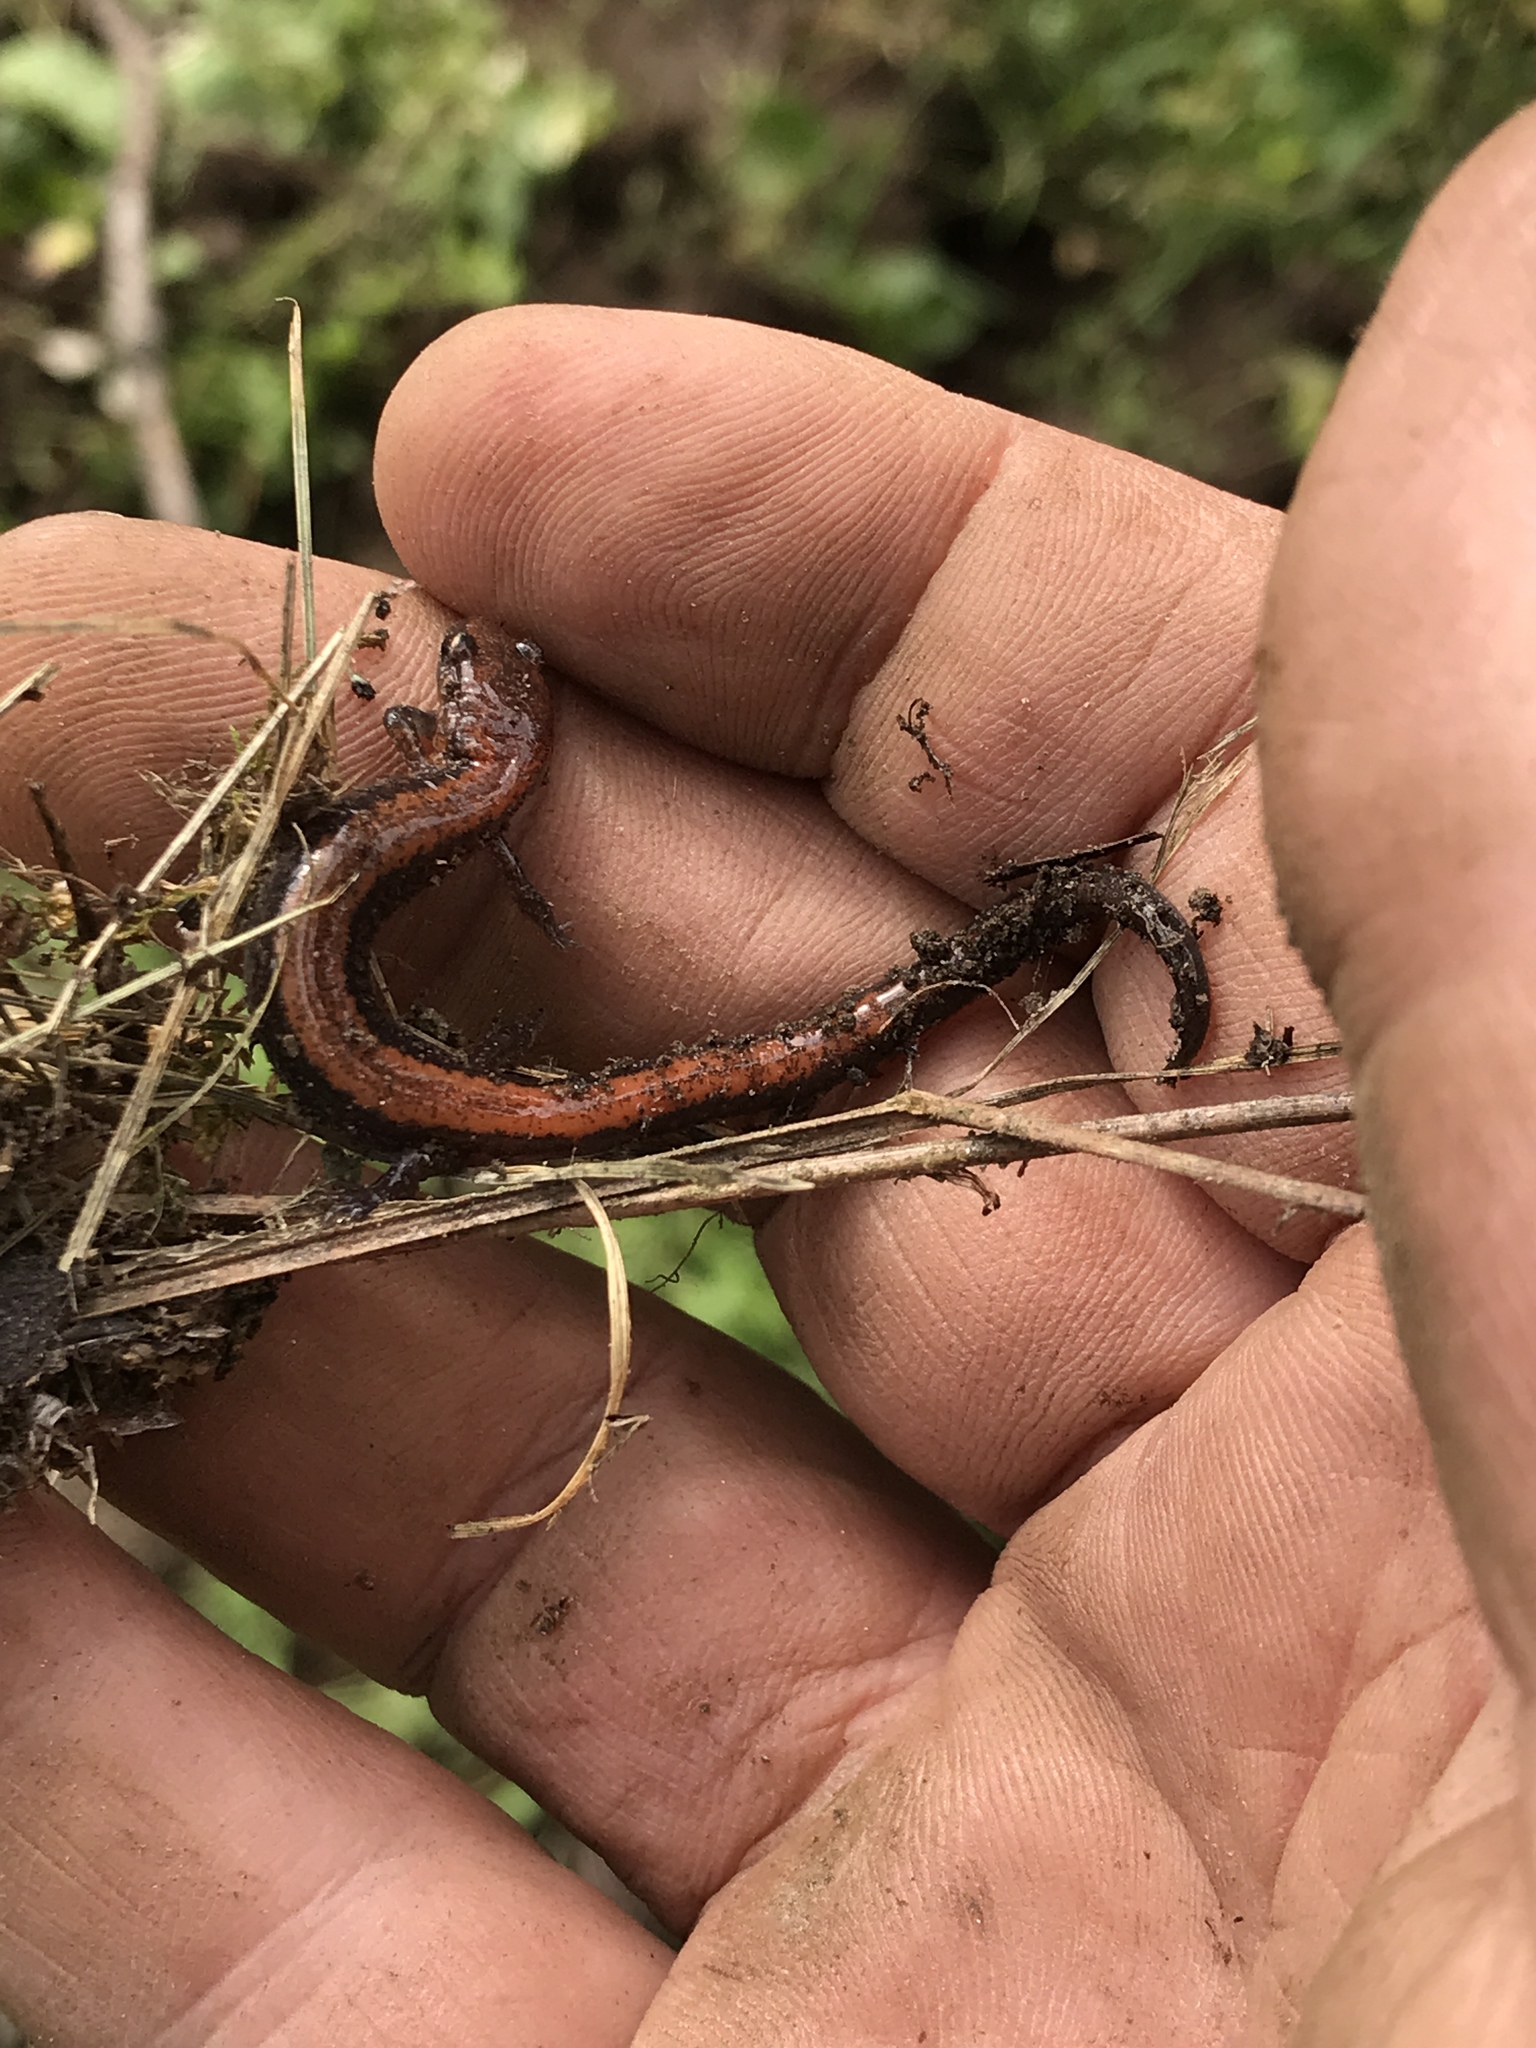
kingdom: Animalia
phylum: Chordata
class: Amphibia
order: Caudata
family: Plethodontidae
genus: Plethodon
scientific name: Plethodon cinereus
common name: Redback salamander
